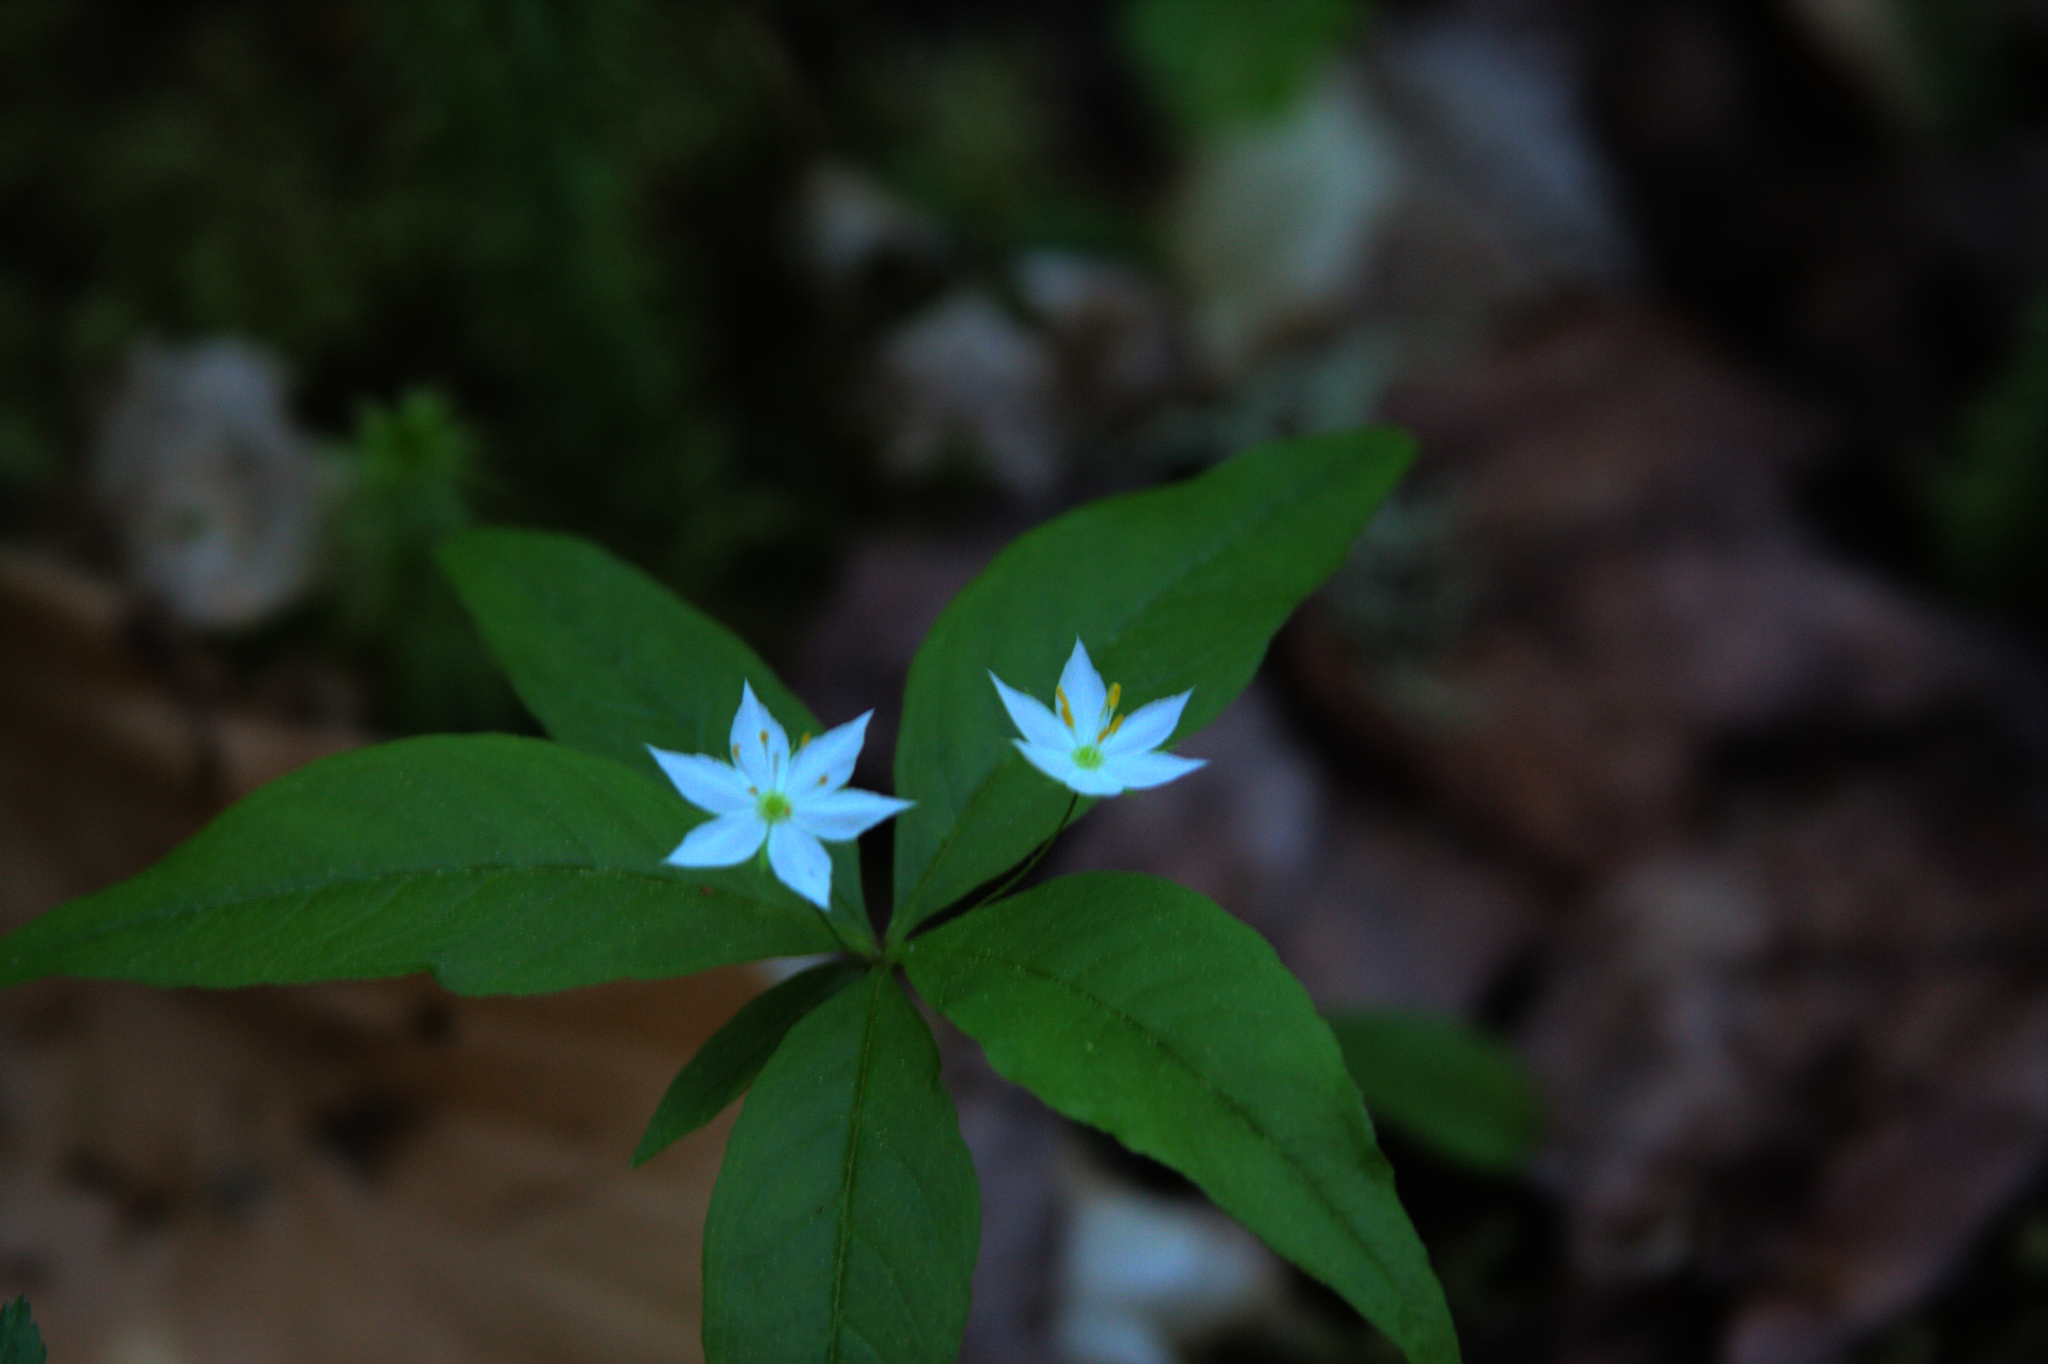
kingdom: Plantae
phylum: Tracheophyta
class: Magnoliopsida
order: Ericales
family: Primulaceae
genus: Lysimachia
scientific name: Lysimachia borealis
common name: American starflower
